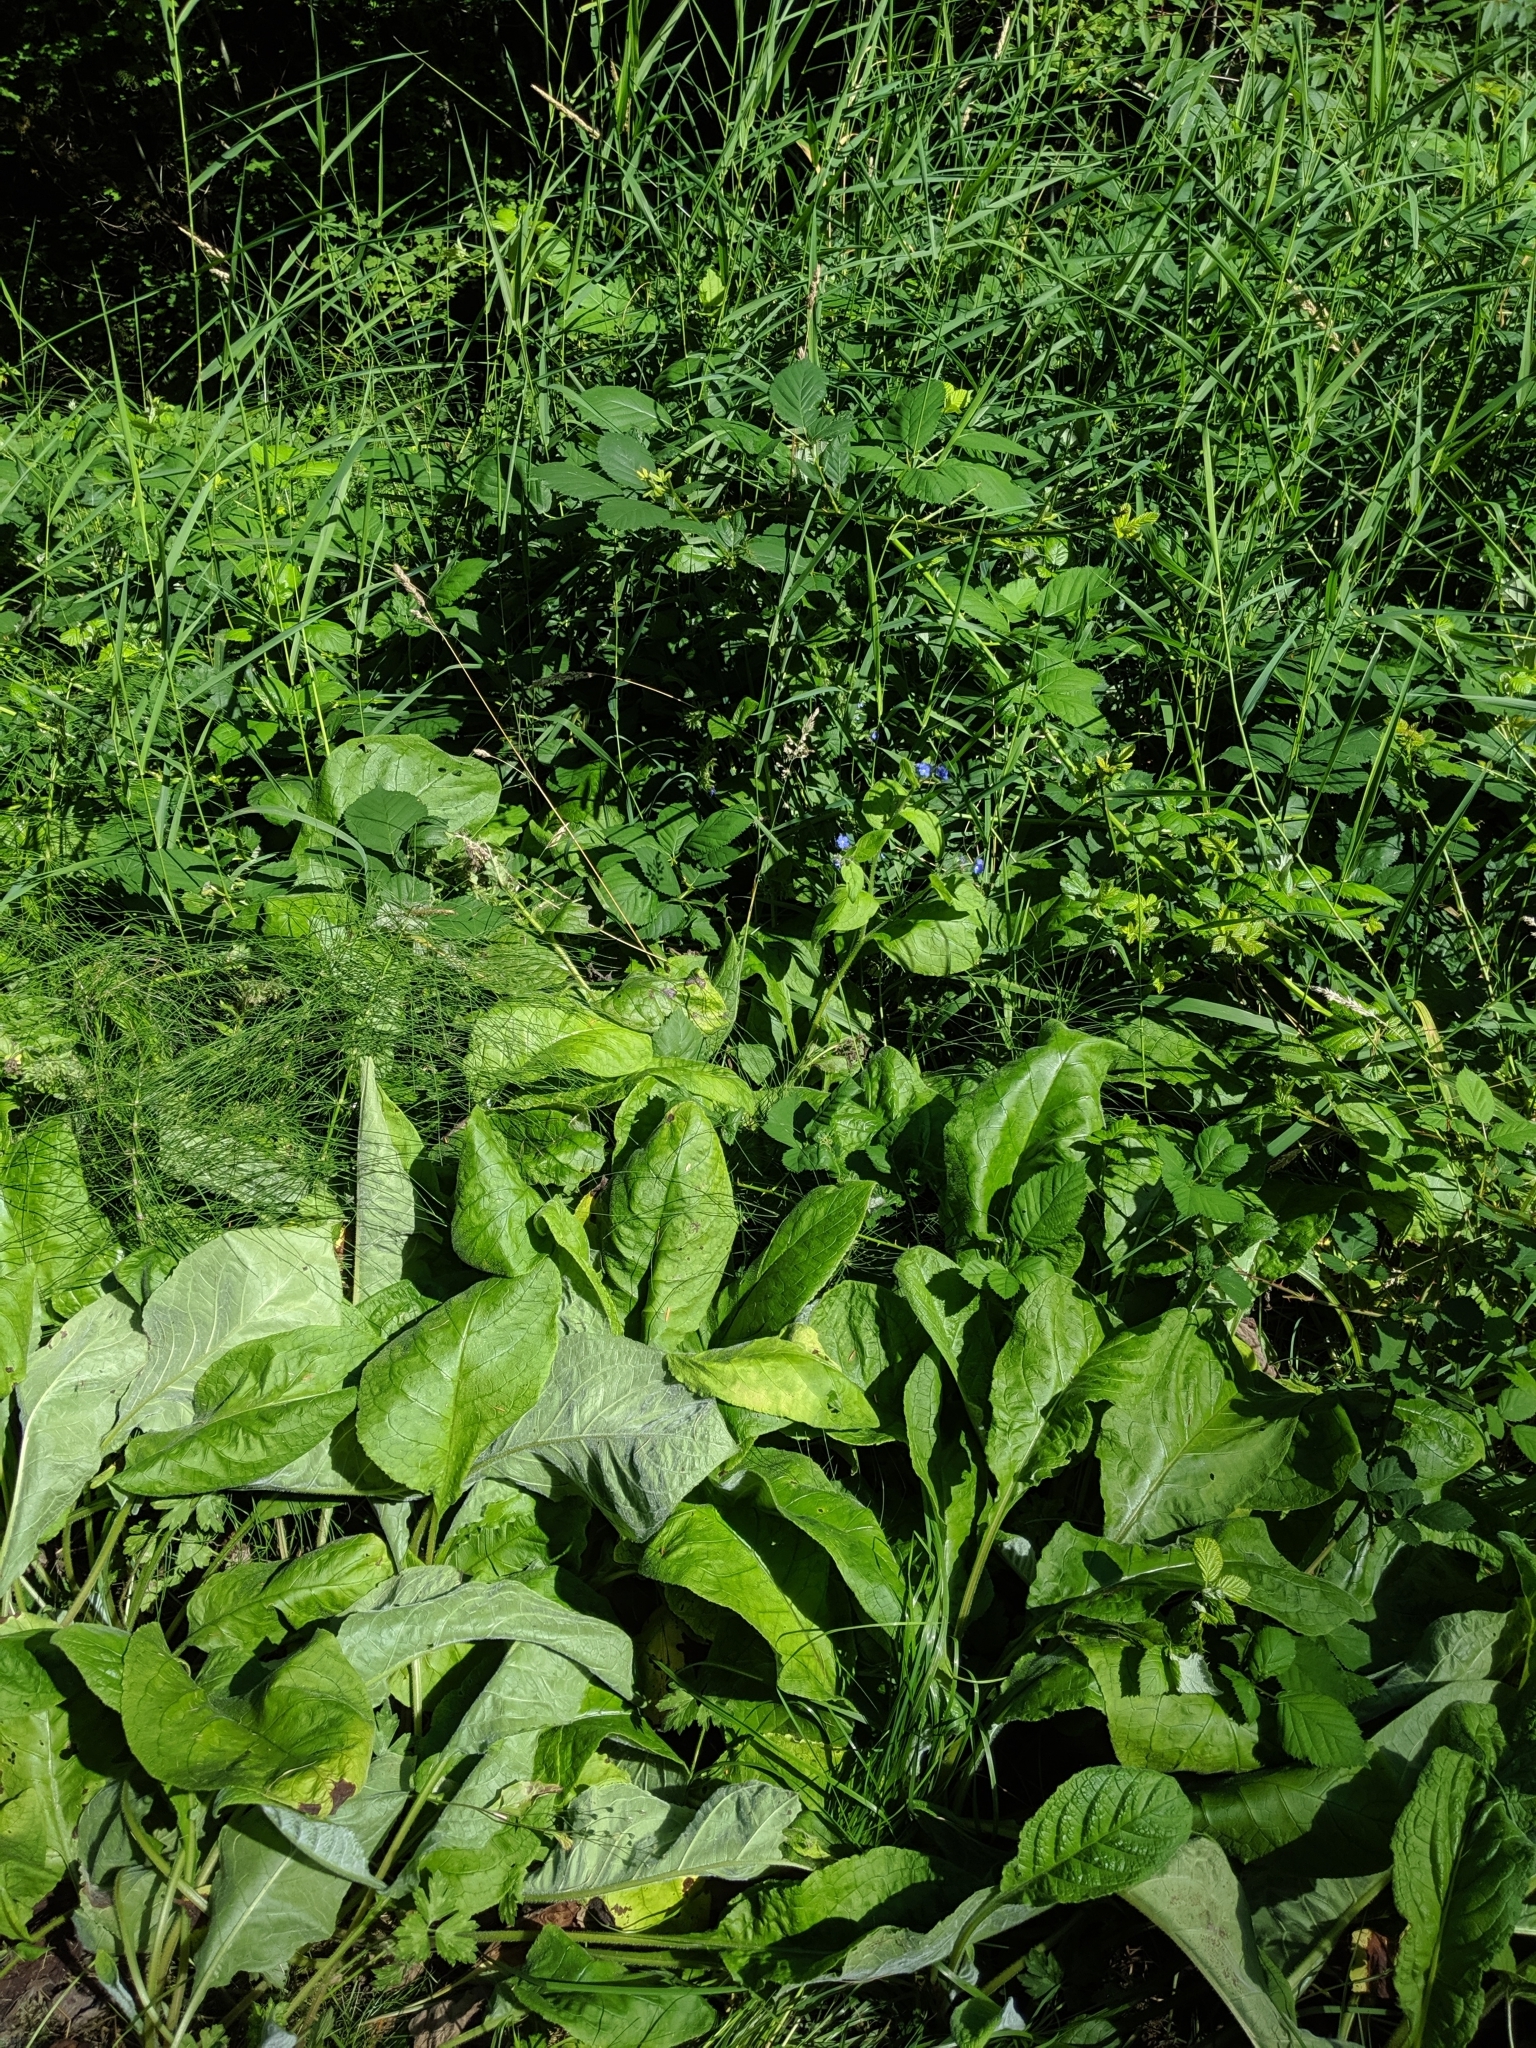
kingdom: Plantae
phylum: Tracheophyta
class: Magnoliopsida
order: Boraginales
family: Boraginaceae
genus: Pentaglottis
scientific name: Pentaglottis sempervirens
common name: Green alkanet
